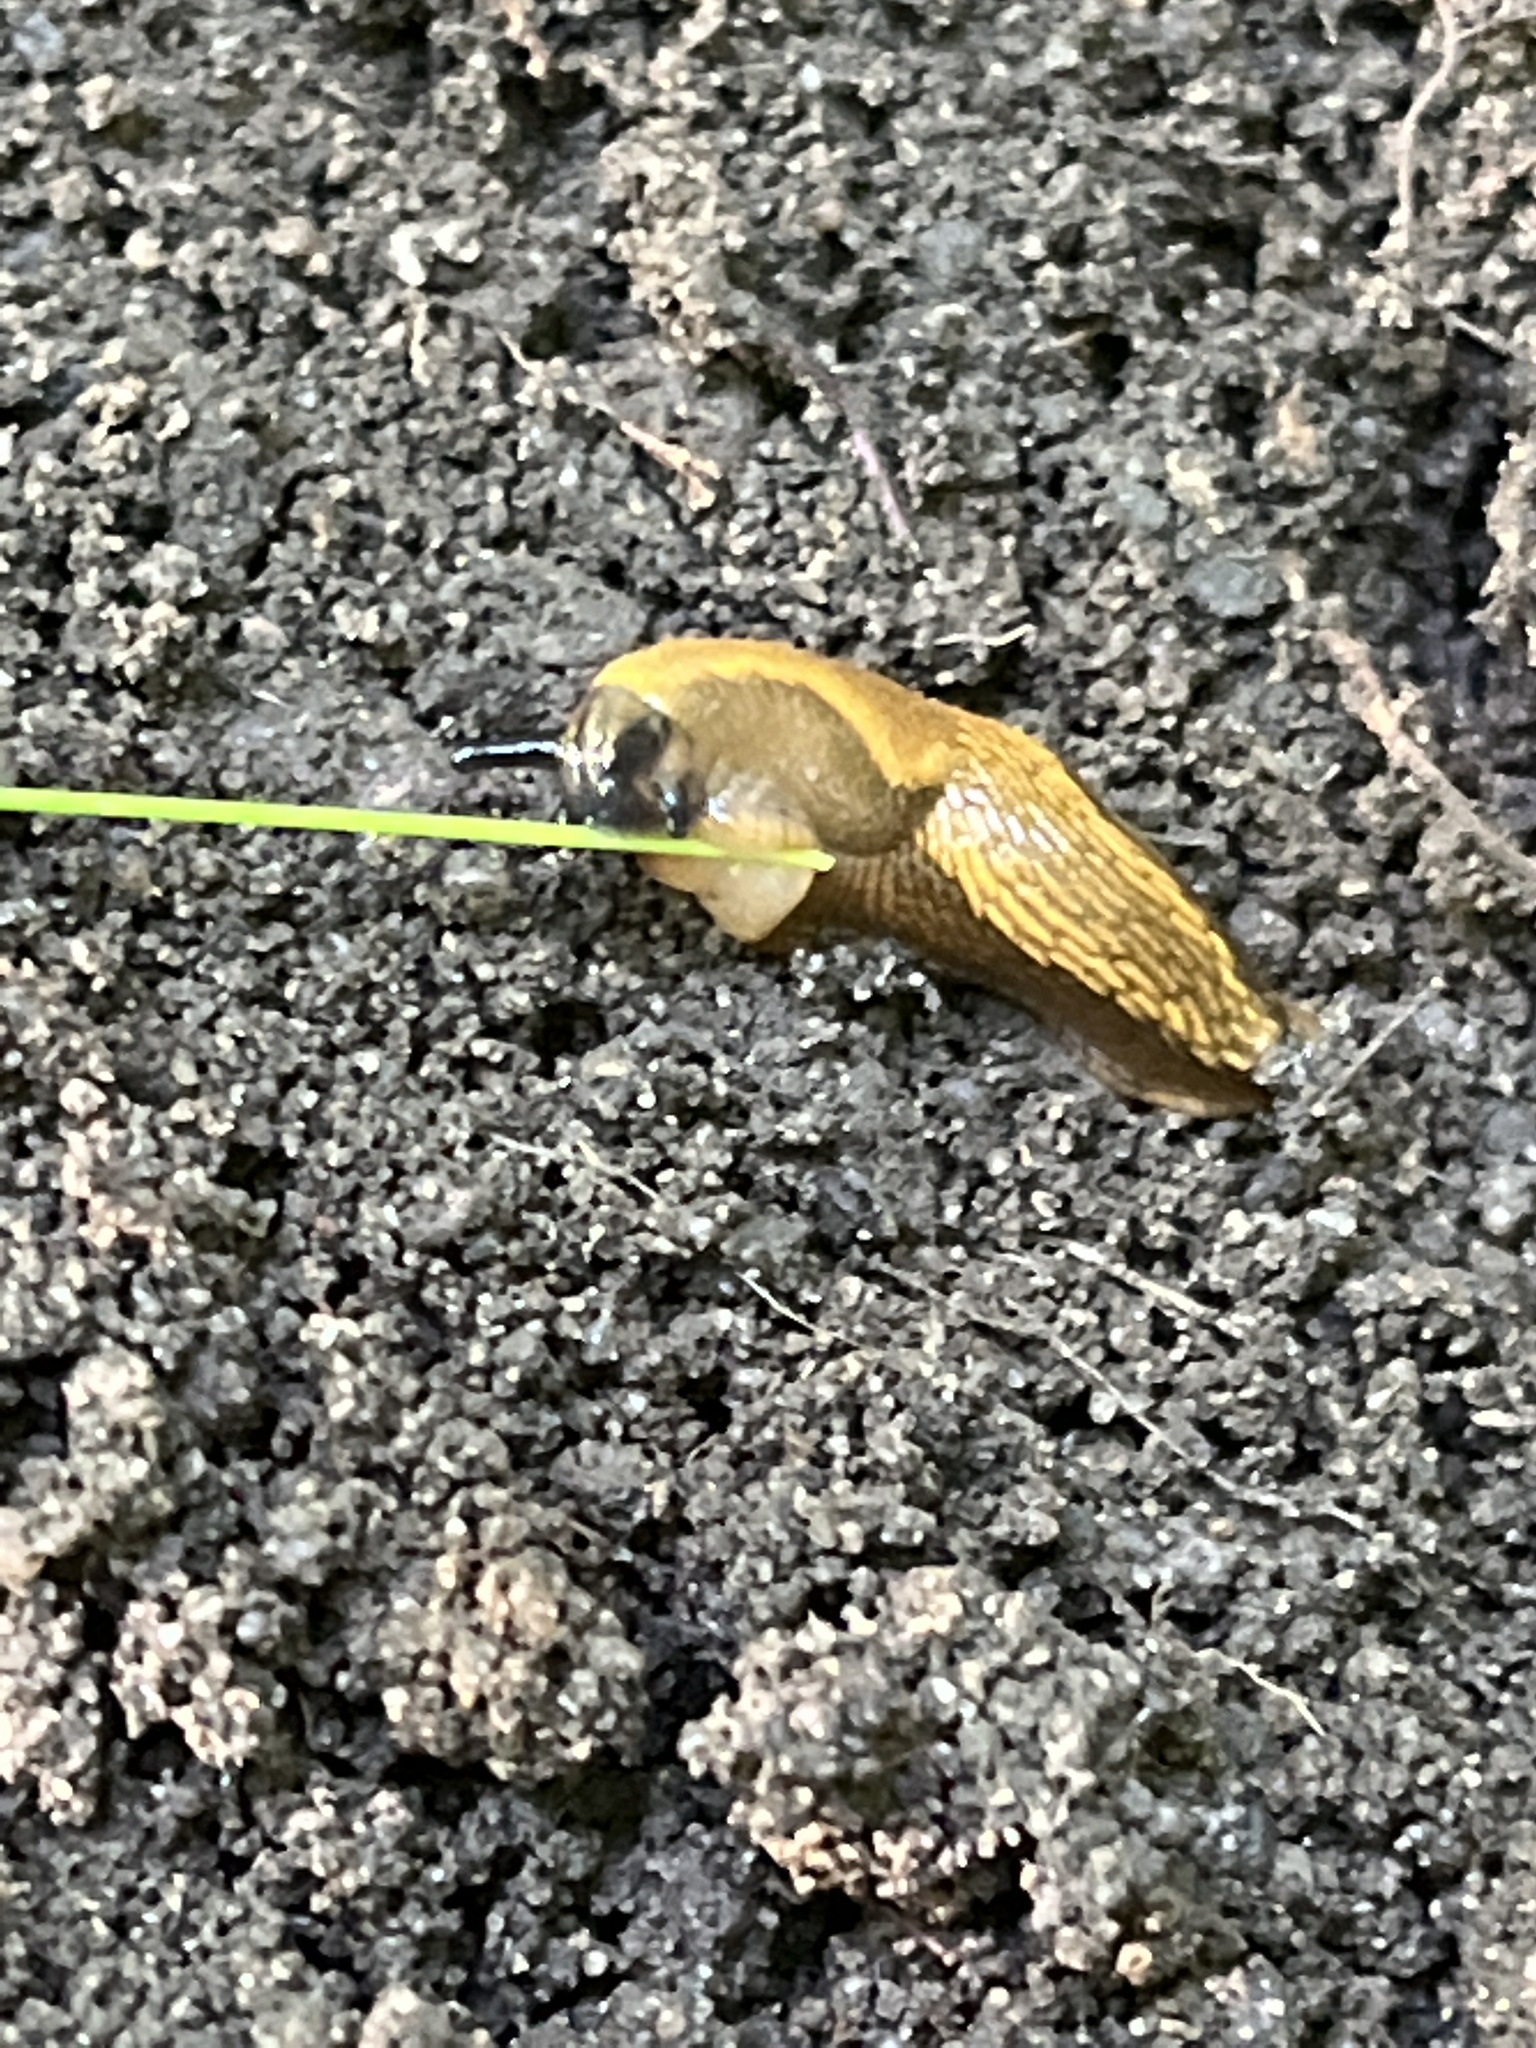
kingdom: Animalia
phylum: Mollusca
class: Gastropoda
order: Stylommatophora
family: Arionidae
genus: Arion
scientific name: Arion vulgaris
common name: Lusitanian slug
